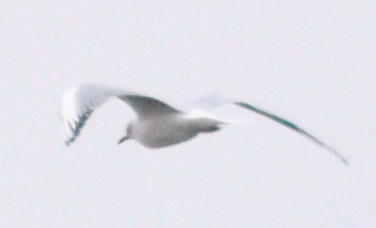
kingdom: Animalia
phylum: Chordata
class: Aves
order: Charadriiformes
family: Laridae
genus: Chroicocephalus
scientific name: Chroicocephalus ridibundus
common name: Black-headed gull
